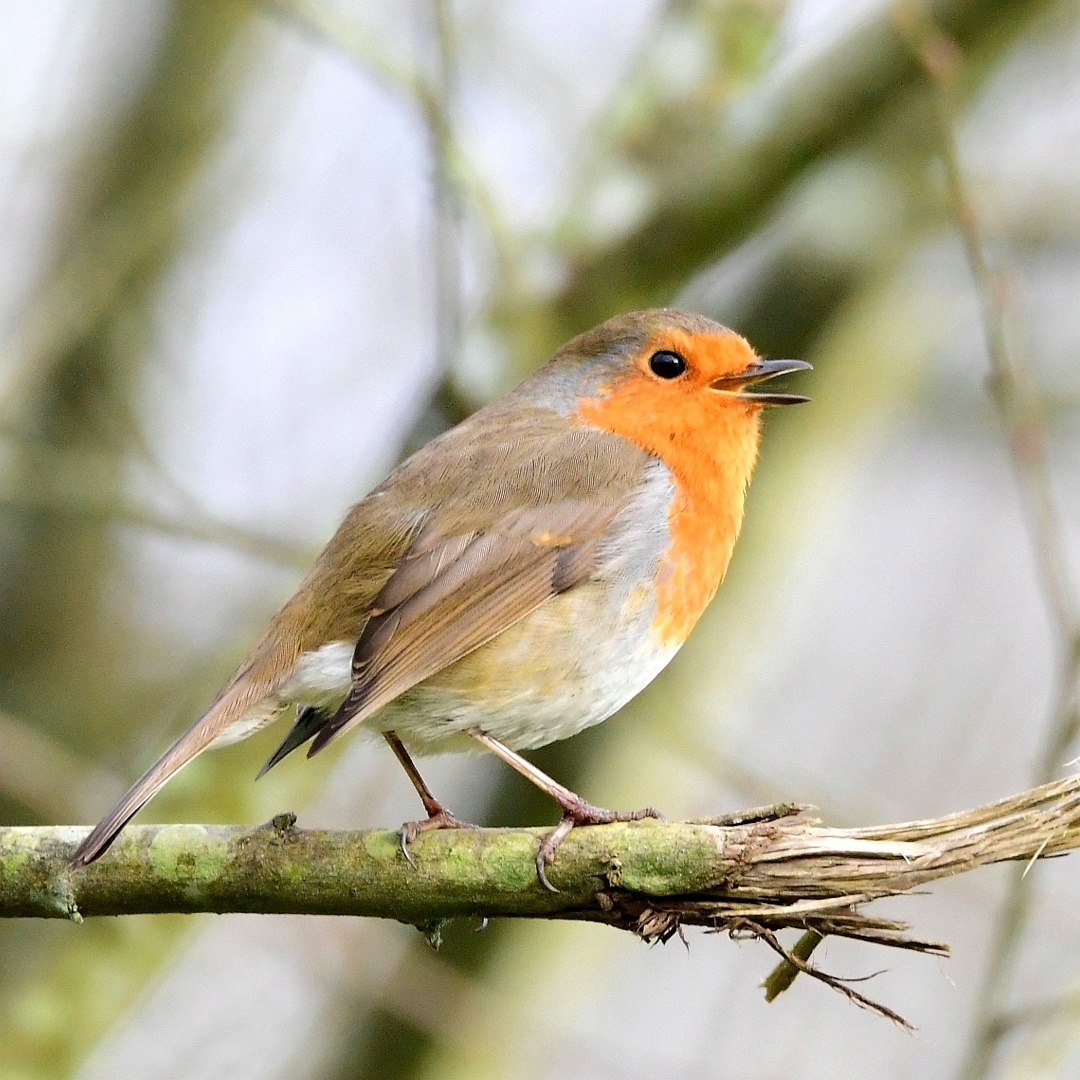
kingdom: Animalia
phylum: Chordata
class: Aves
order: Passeriformes
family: Muscicapidae
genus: Erithacus
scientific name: Erithacus rubecula
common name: European robin
